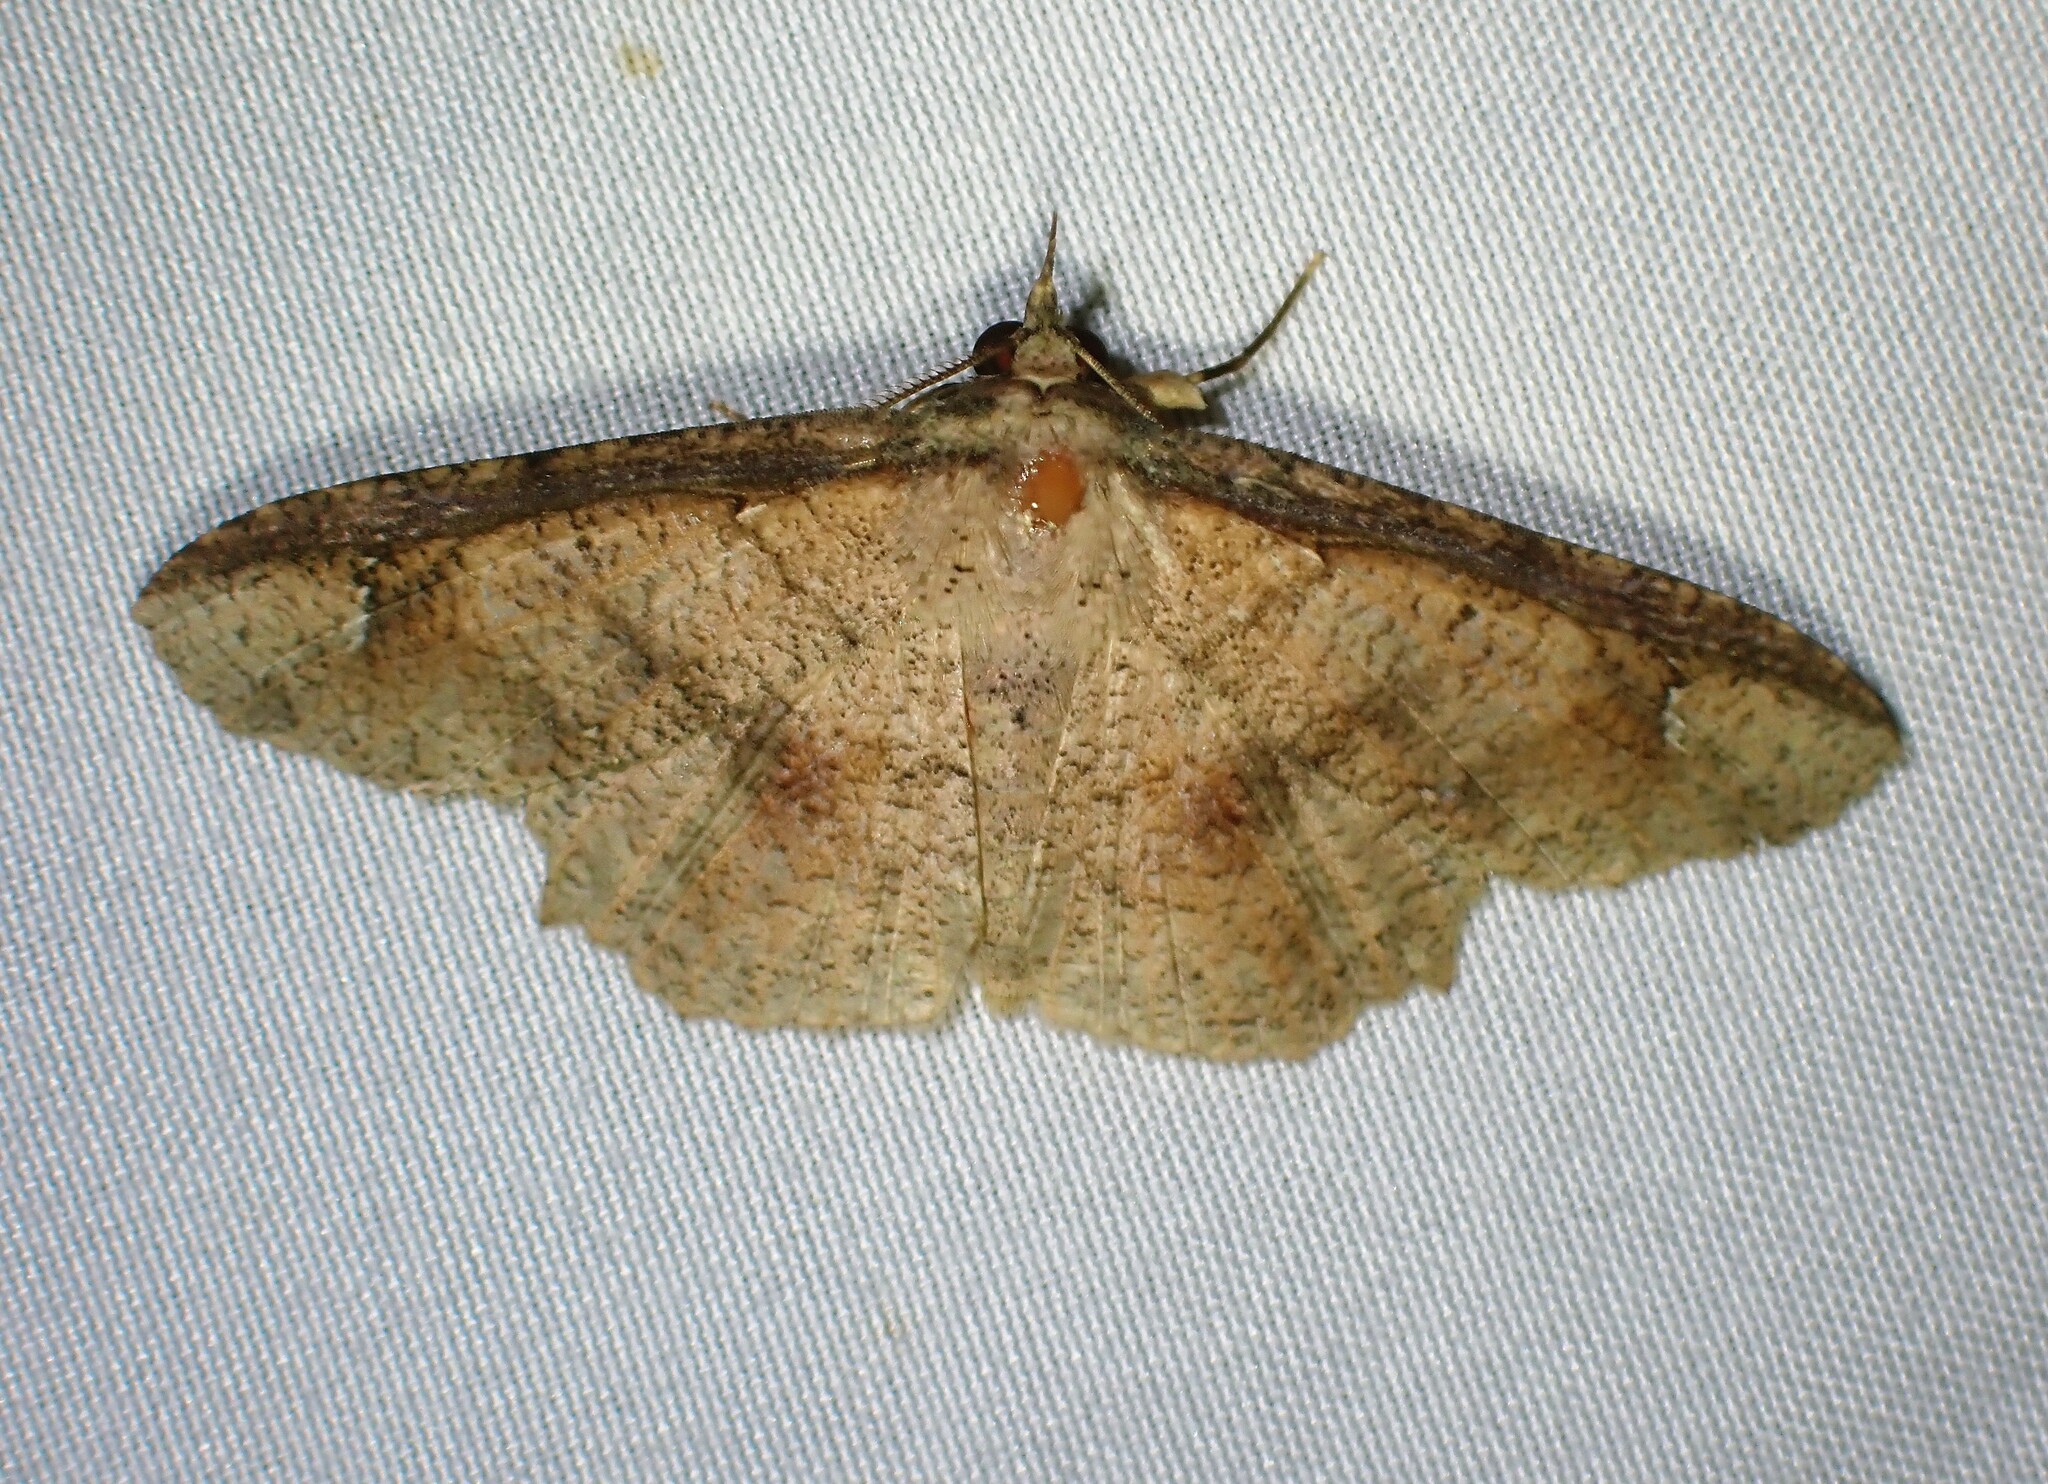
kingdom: Animalia
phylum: Arthropoda
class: Insecta
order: Lepidoptera
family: Erebidae
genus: Erebostrota
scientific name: Erebostrota stenelea
